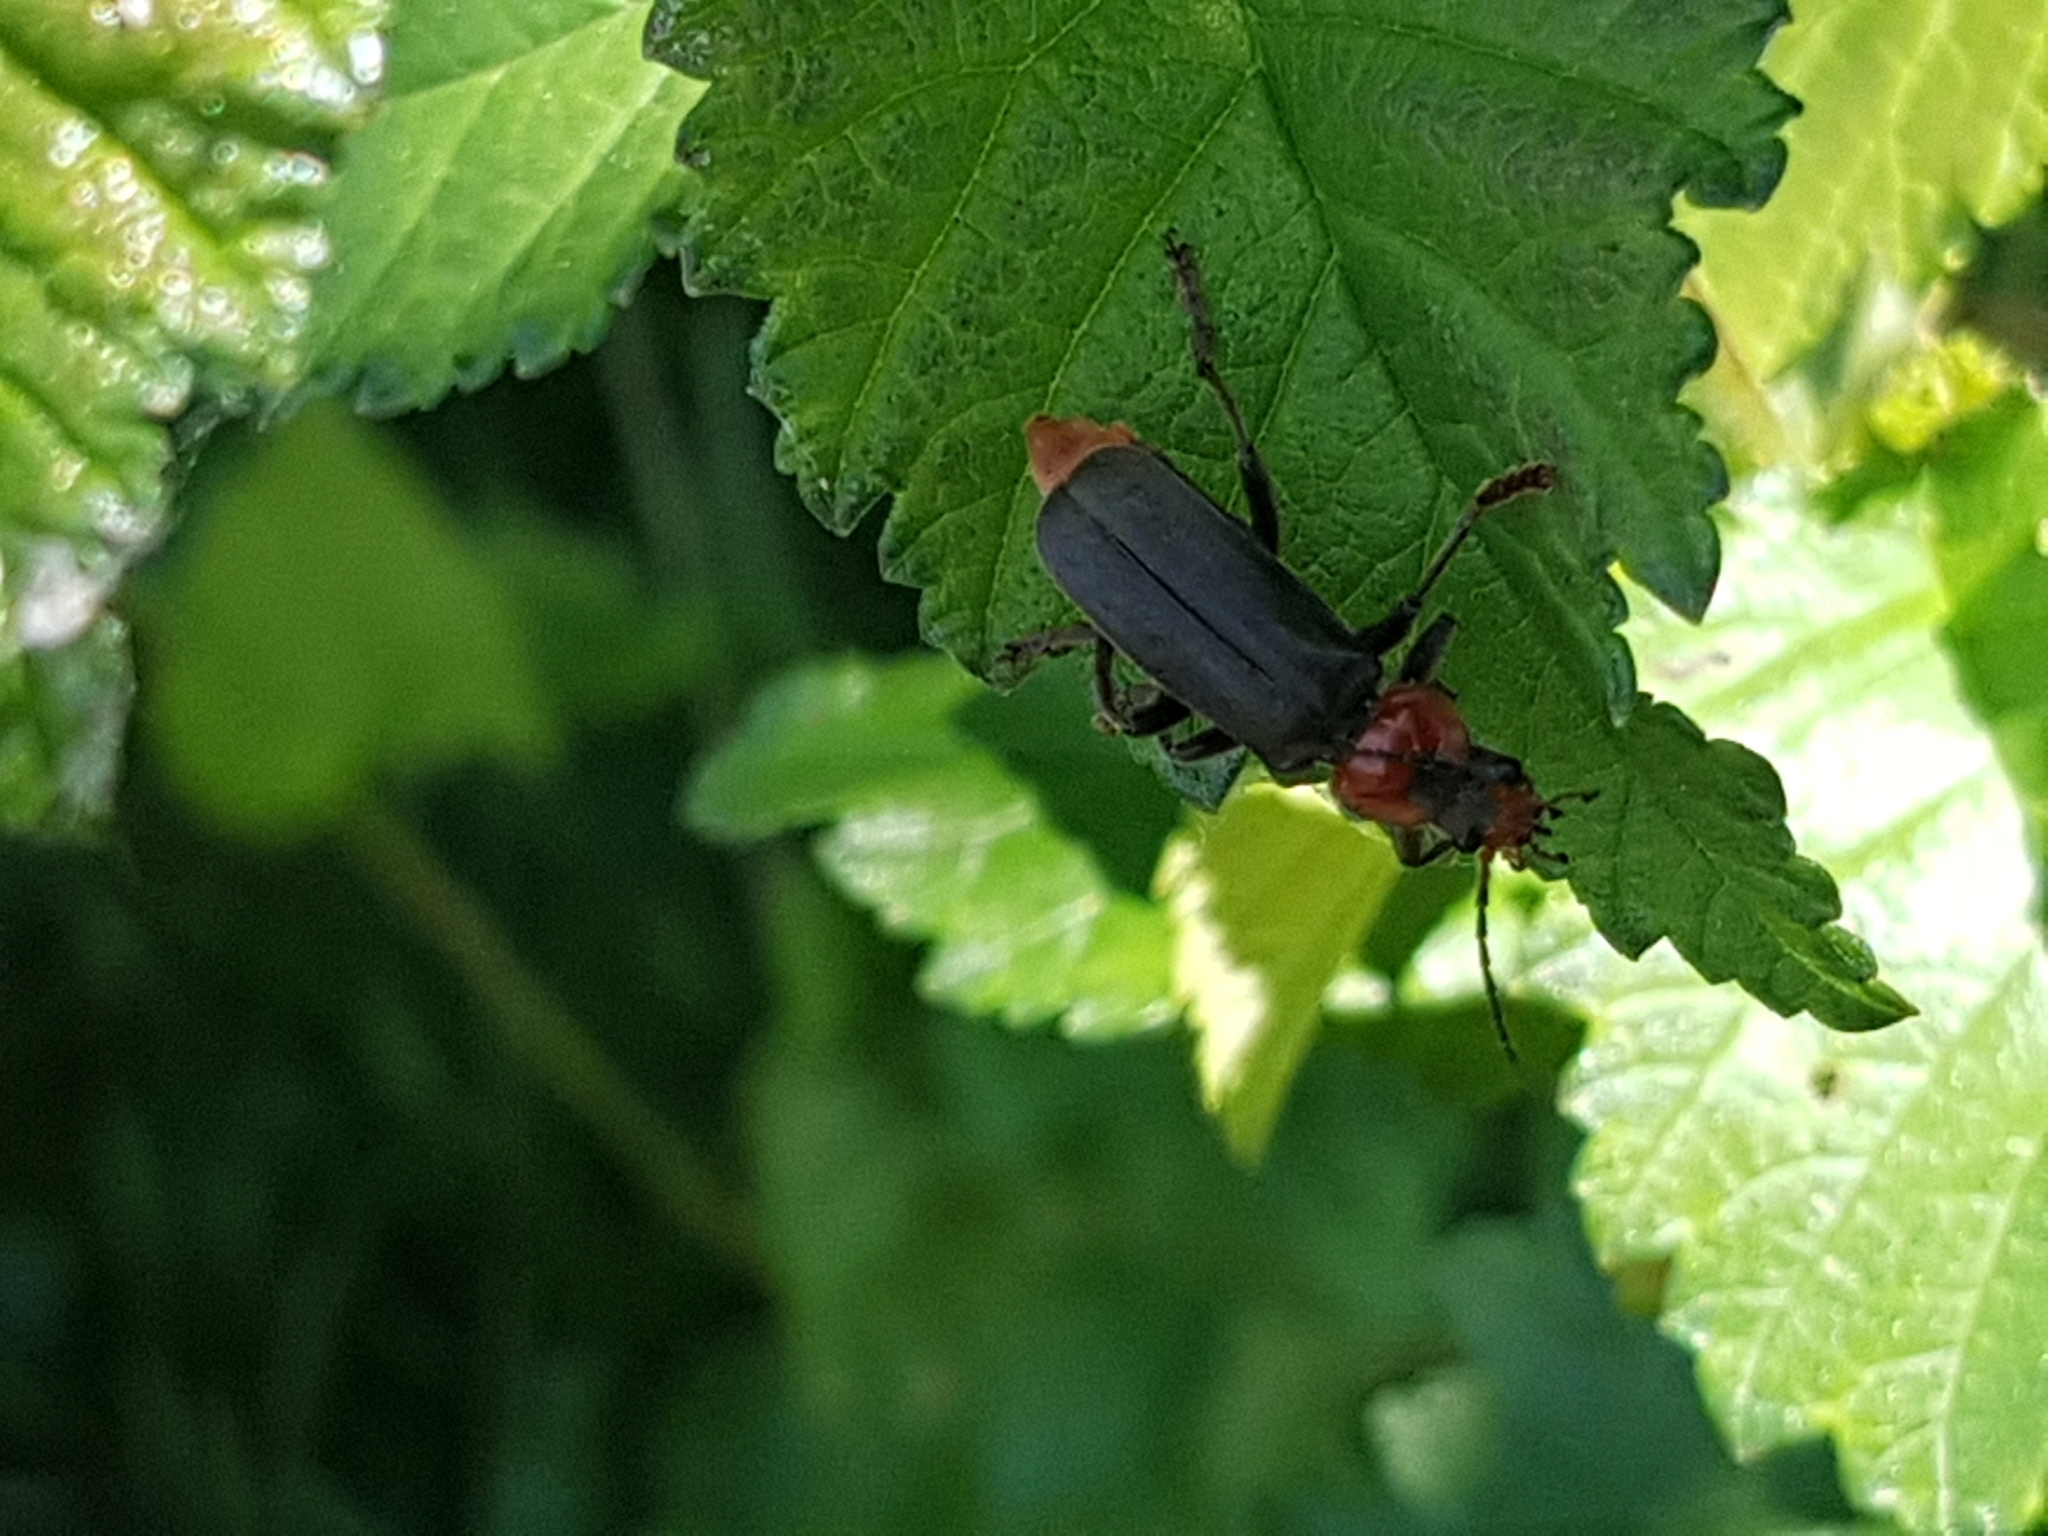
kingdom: Animalia
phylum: Arthropoda
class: Insecta
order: Coleoptera
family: Cantharidae
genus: Cantharis
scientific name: Cantharis fusca
